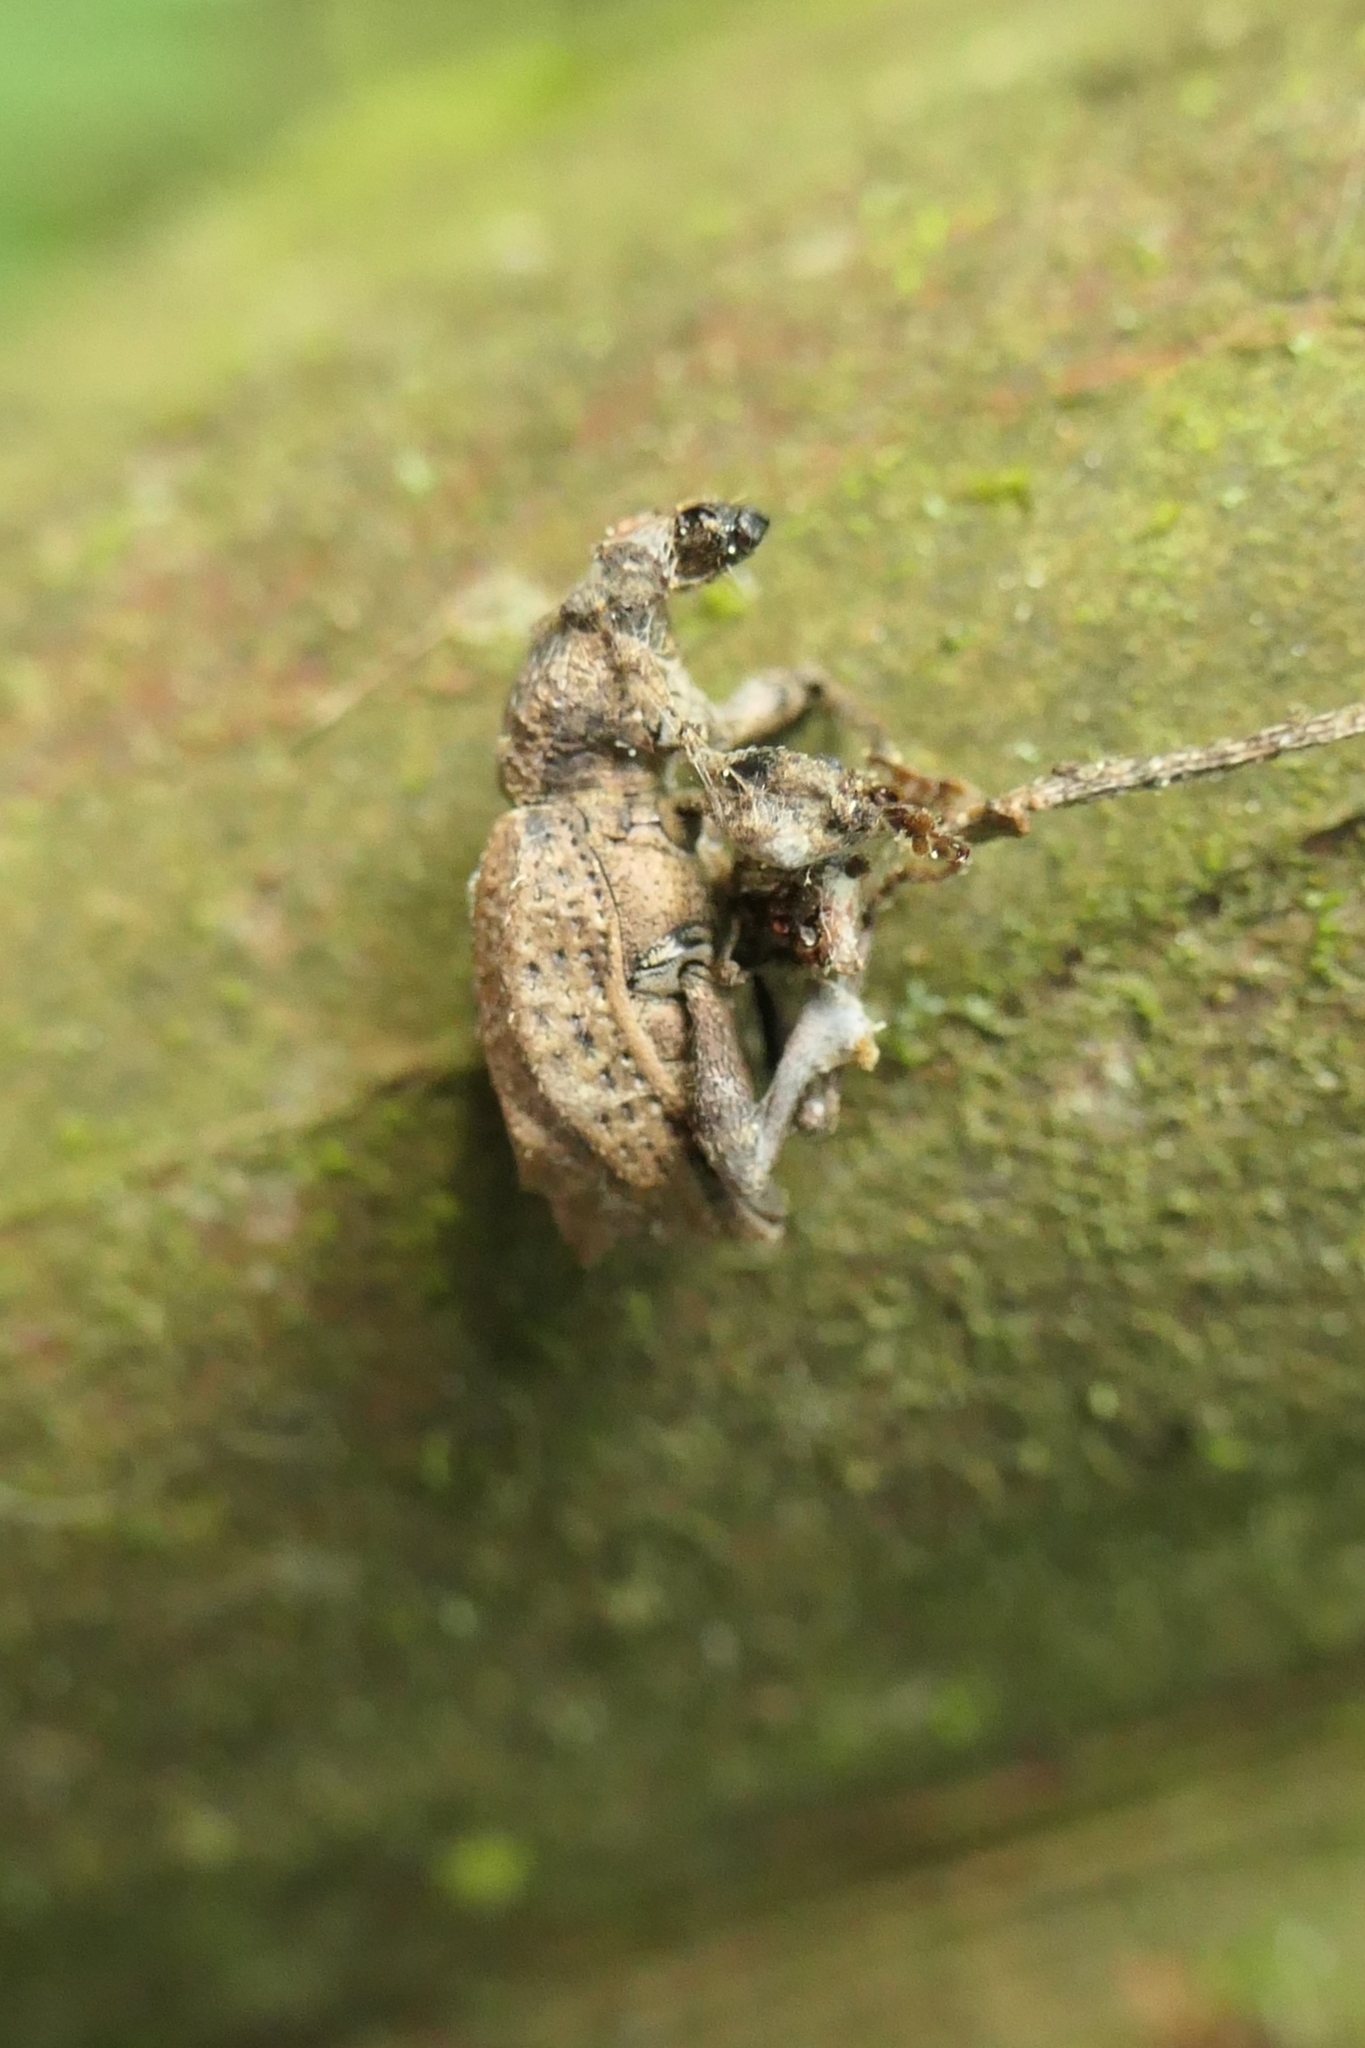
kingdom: Animalia
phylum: Arthropoda
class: Insecta
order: Coleoptera
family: Curculionidae
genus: Chalepistes
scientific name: Chalepistes rhesus
